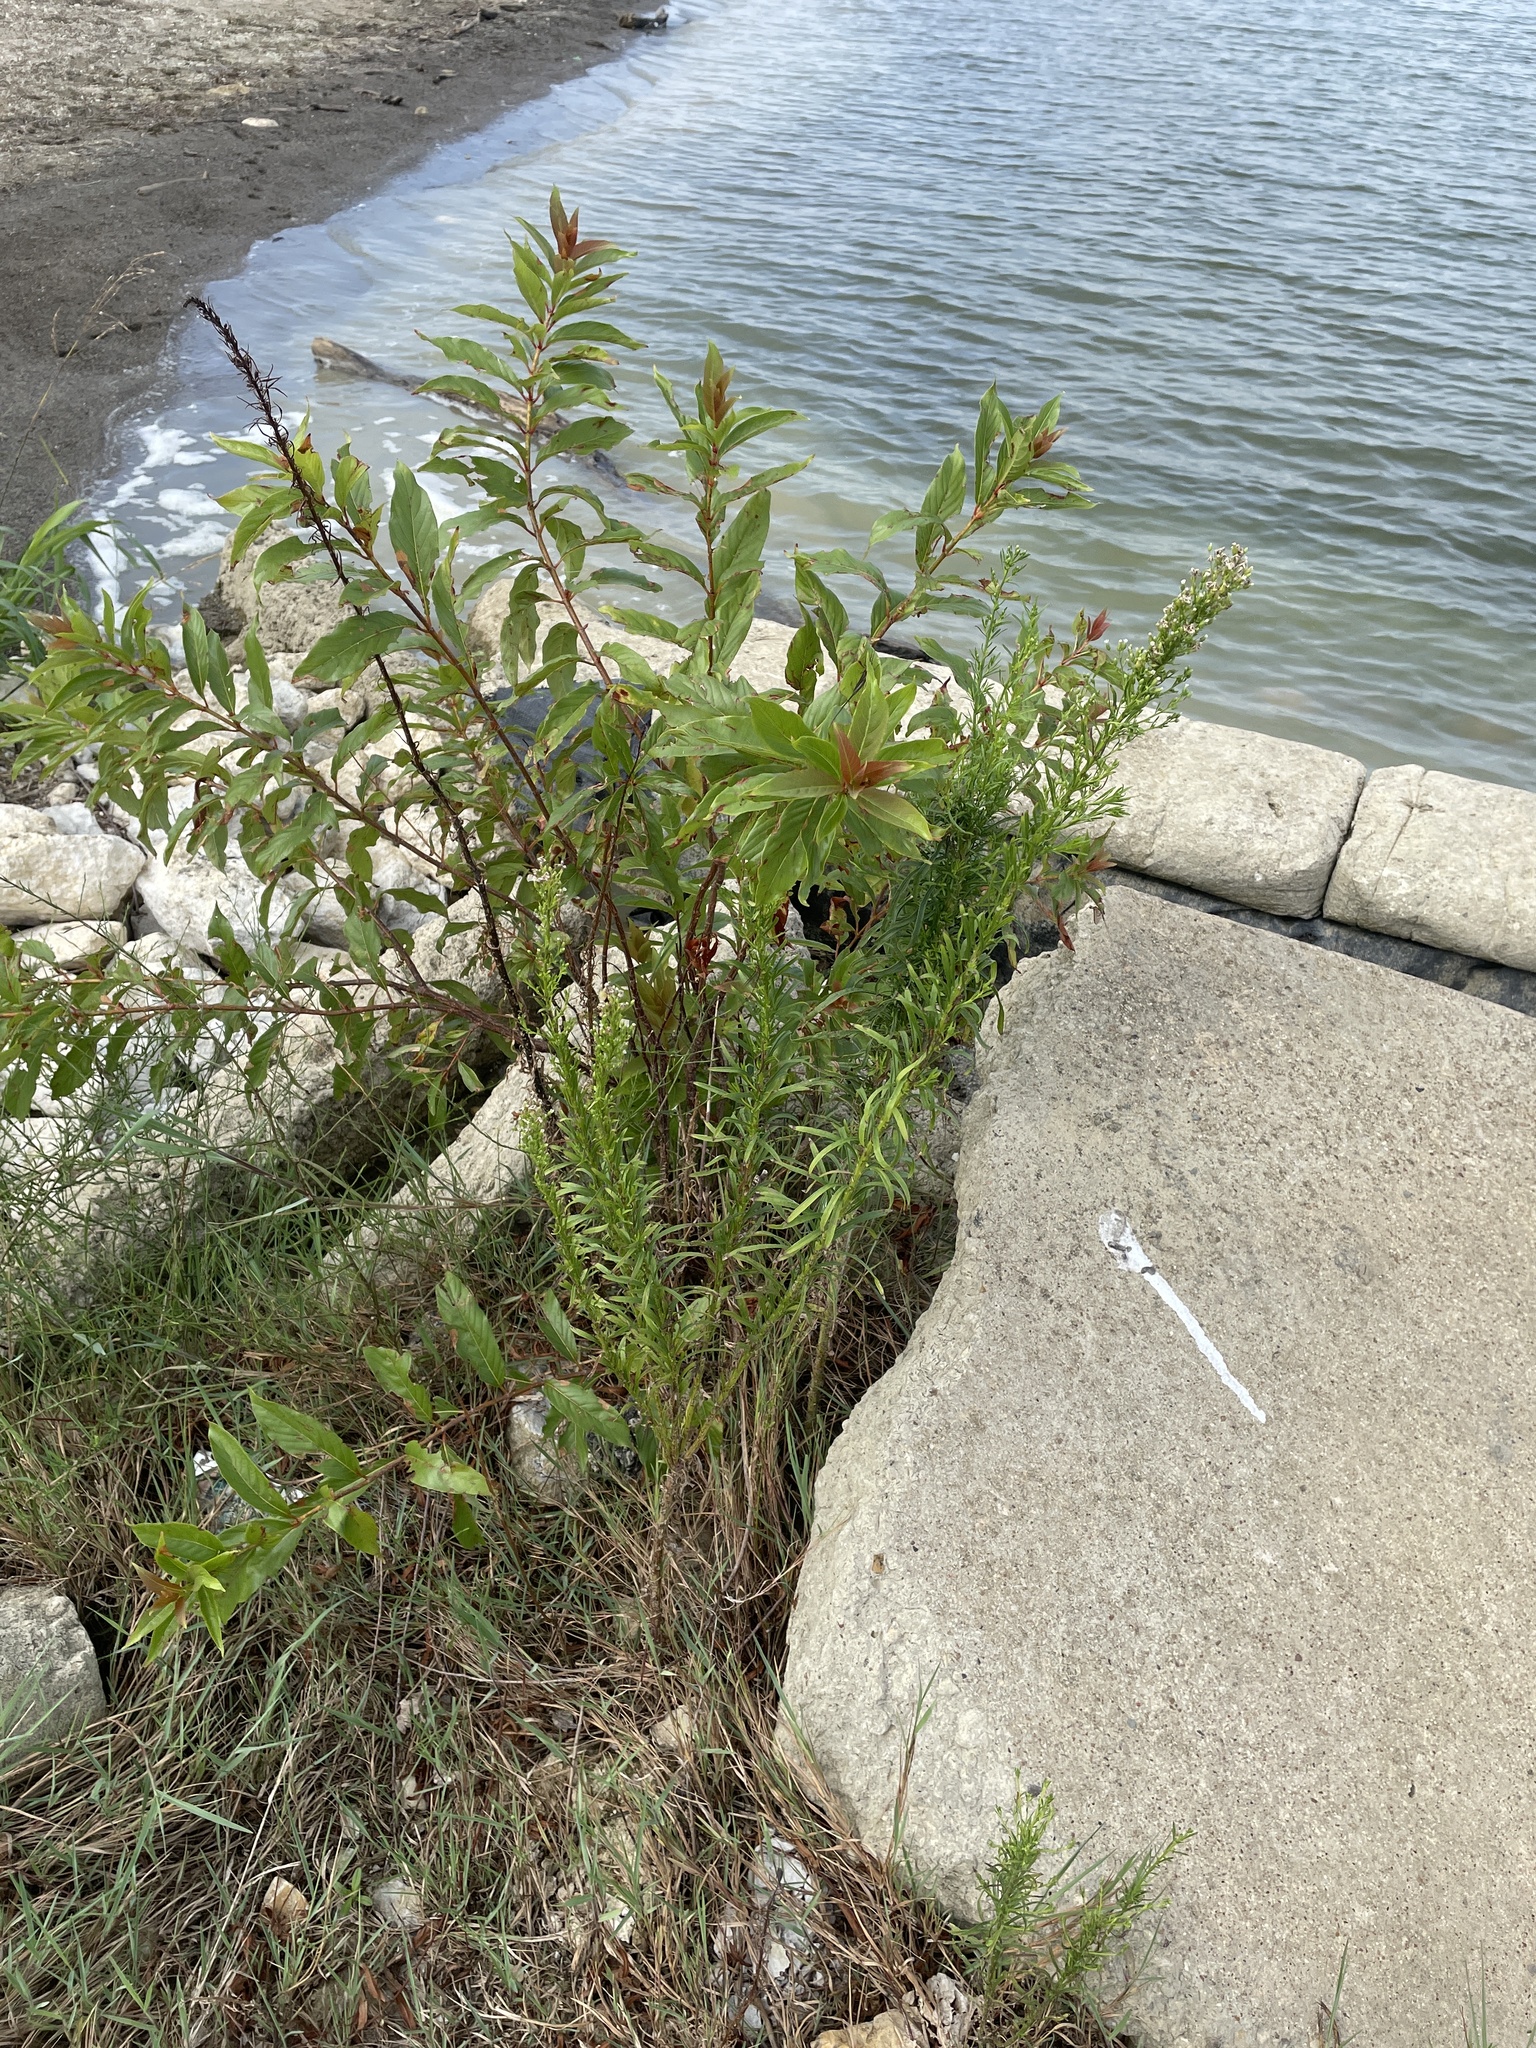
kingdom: Plantae
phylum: Tracheophyta
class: Magnoliopsida
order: Asterales
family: Asteraceae
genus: Erigeron
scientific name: Erigeron canadensis
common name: Canadian fleabane
